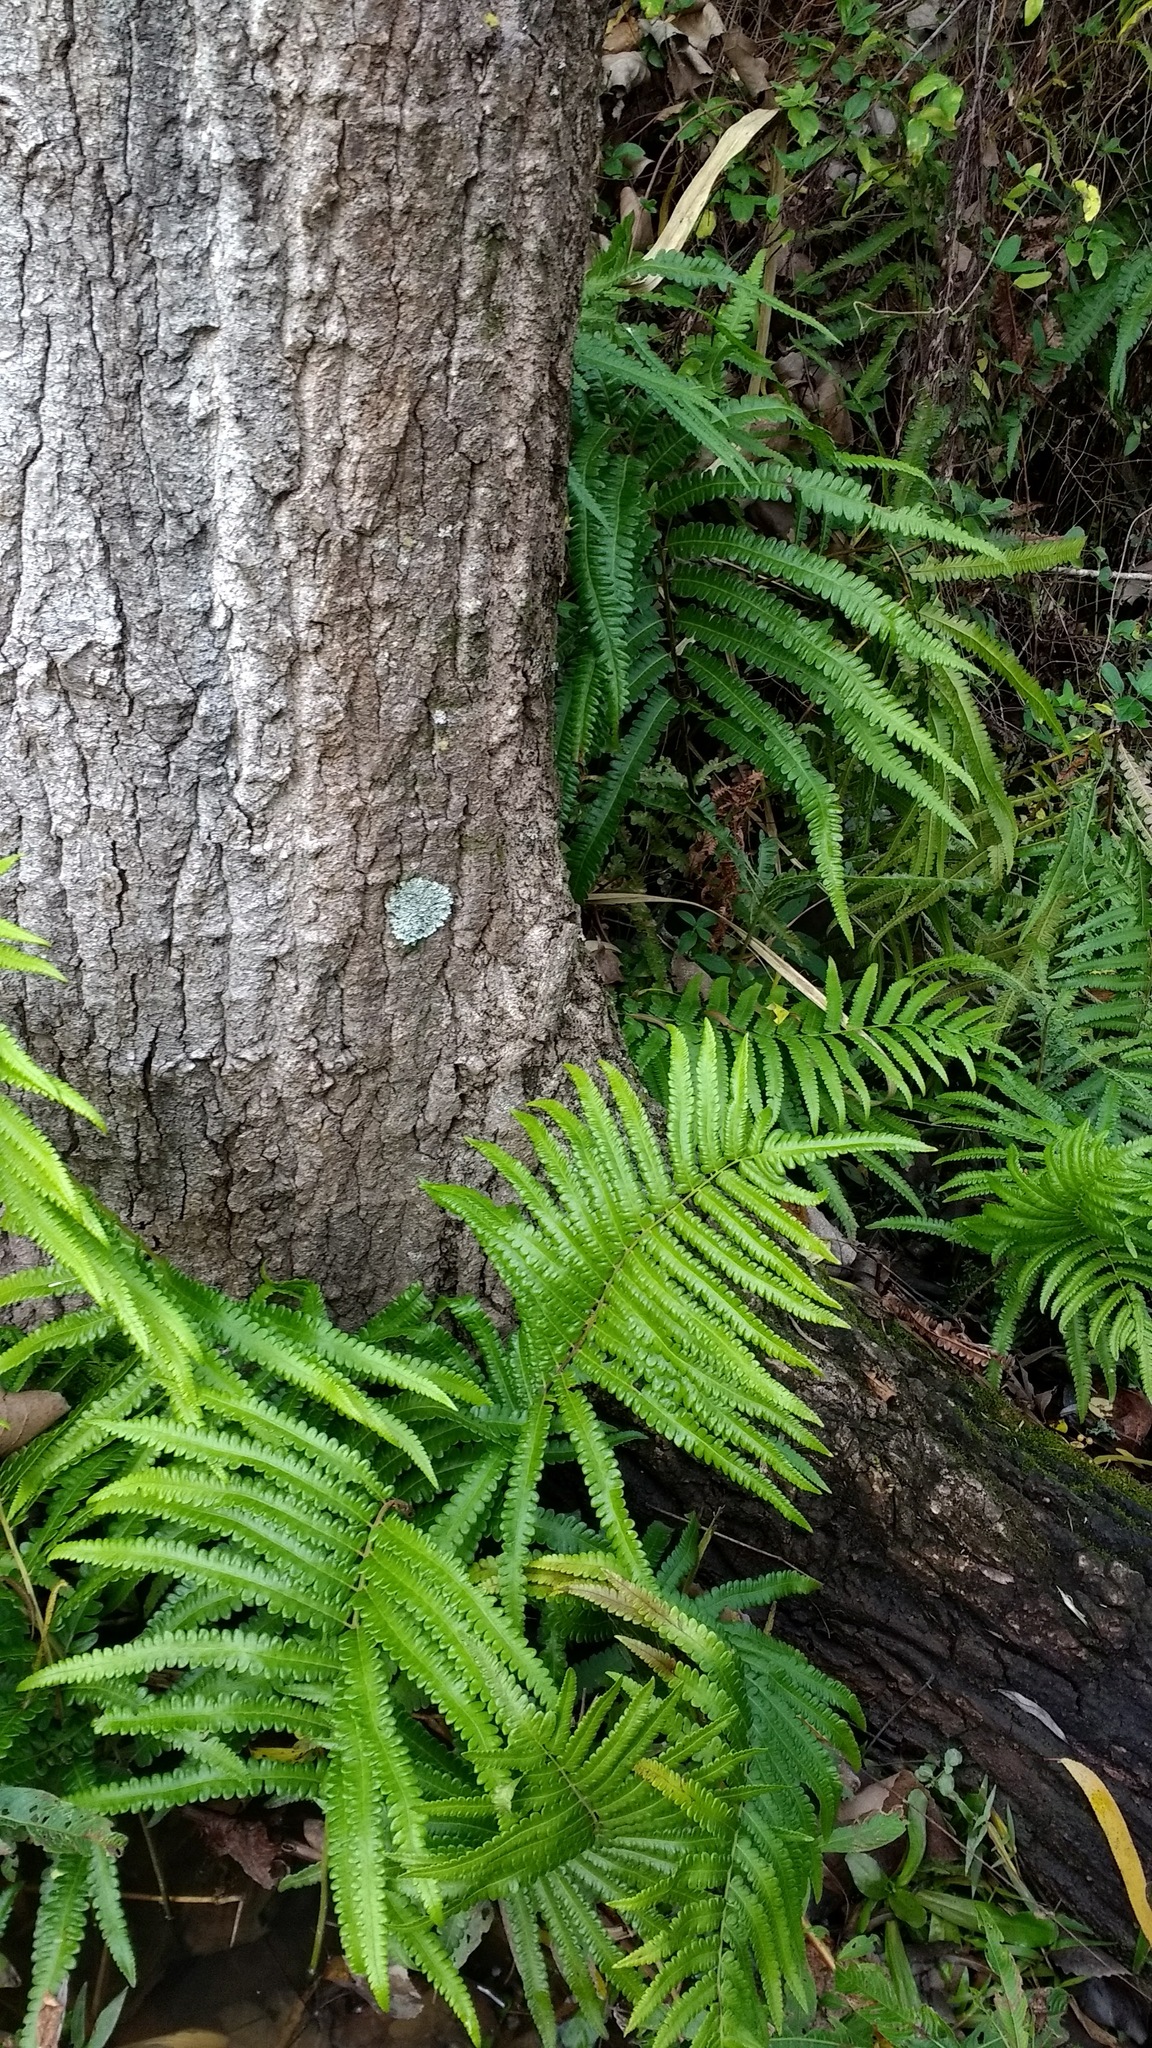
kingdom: Plantae
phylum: Tracheophyta
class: Polypodiopsida
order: Polypodiales
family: Thelypteridaceae
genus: Cyclosorus
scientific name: Cyclosorus interruptus
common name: Neke fern
